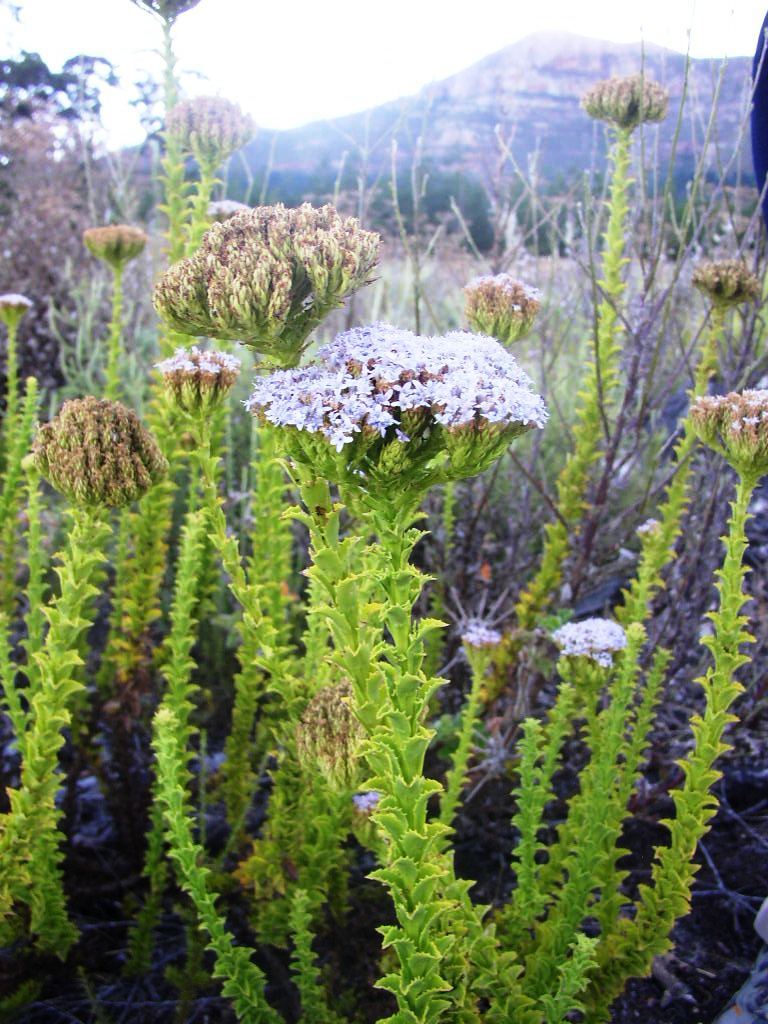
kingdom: Plantae
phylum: Tracheophyta
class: Magnoliopsida
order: Lamiales
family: Scrophulariaceae
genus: Pseudoselago
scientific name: Pseudoselago serrata
